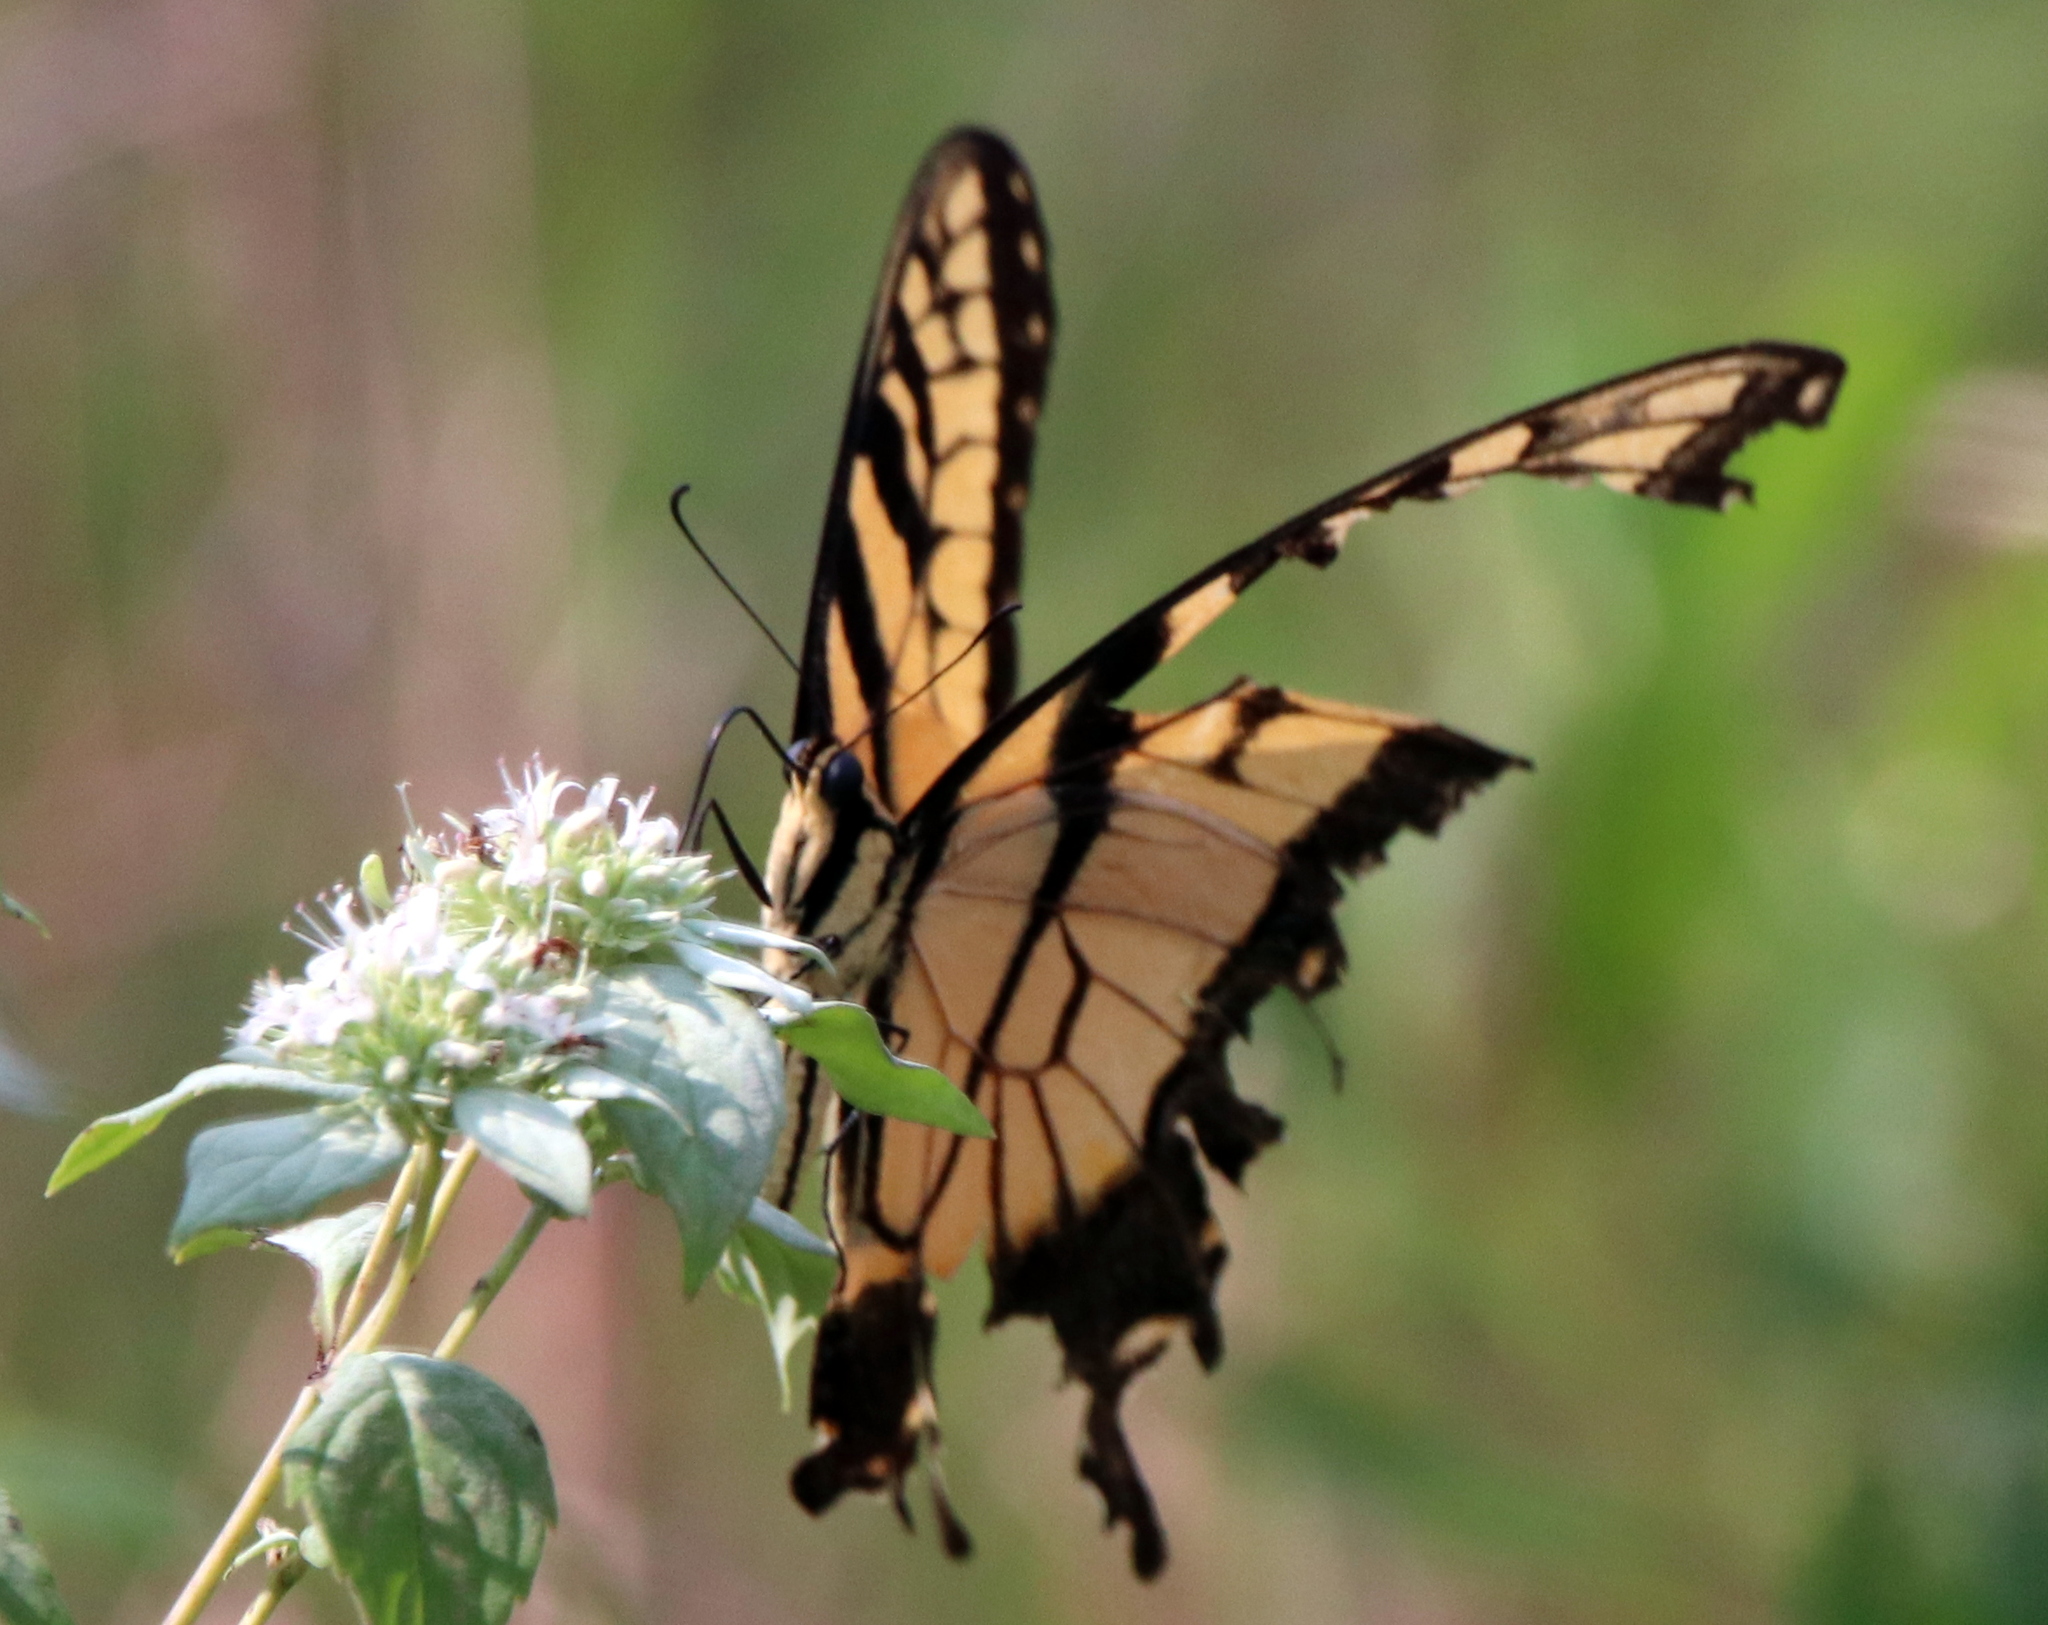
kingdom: Animalia
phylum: Arthropoda
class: Insecta
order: Lepidoptera
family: Papilionidae
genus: Papilio
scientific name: Papilio glaucus
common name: Tiger swallowtail
